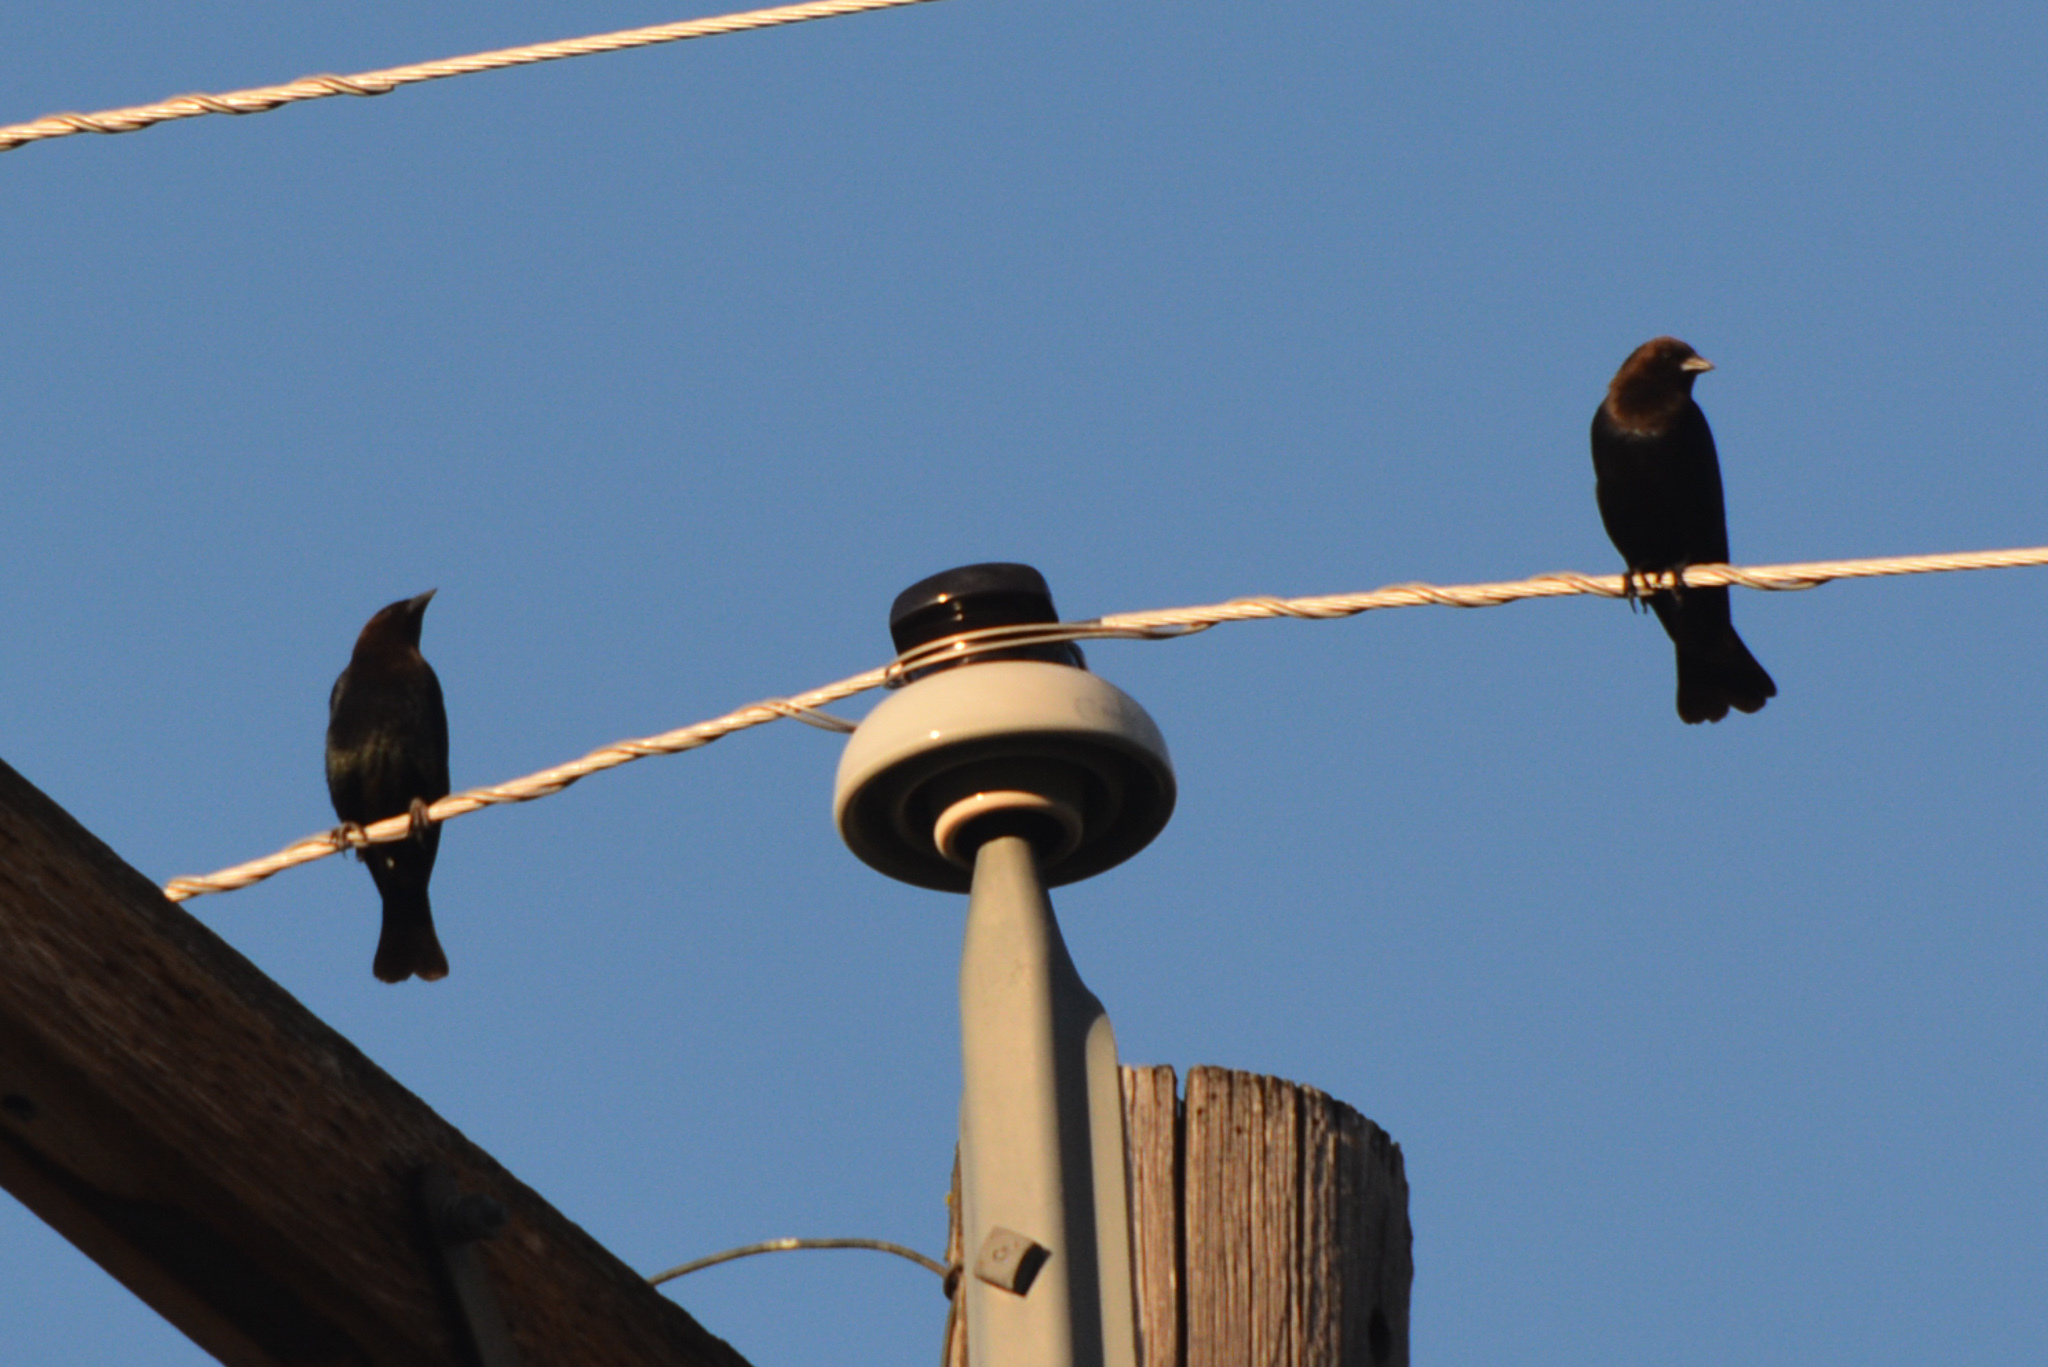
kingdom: Animalia
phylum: Chordata
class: Aves
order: Passeriformes
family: Icteridae
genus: Molothrus
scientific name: Molothrus ater
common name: Brown-headed cowbird
